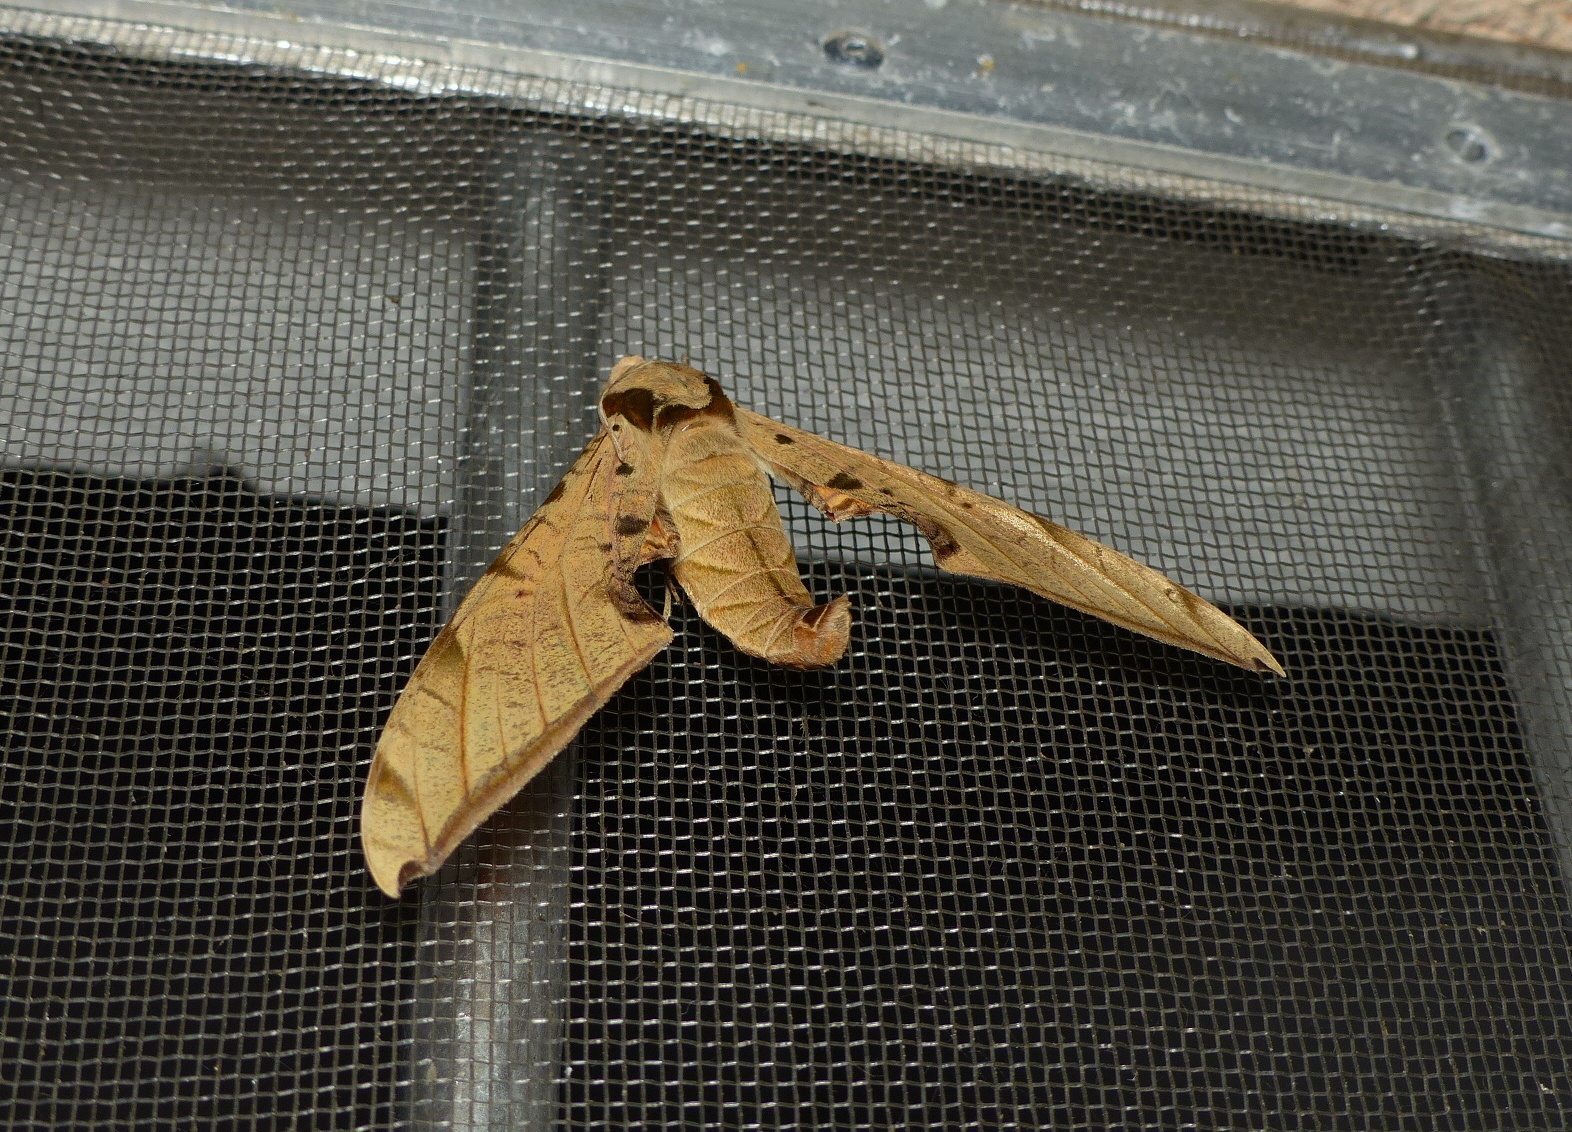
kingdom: Animalia
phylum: Arthropoda
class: Insecta
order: Lepidoptera
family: Sphingidae
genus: Protambulyx
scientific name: Protambulyx strigilis
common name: Streaked sphinx
